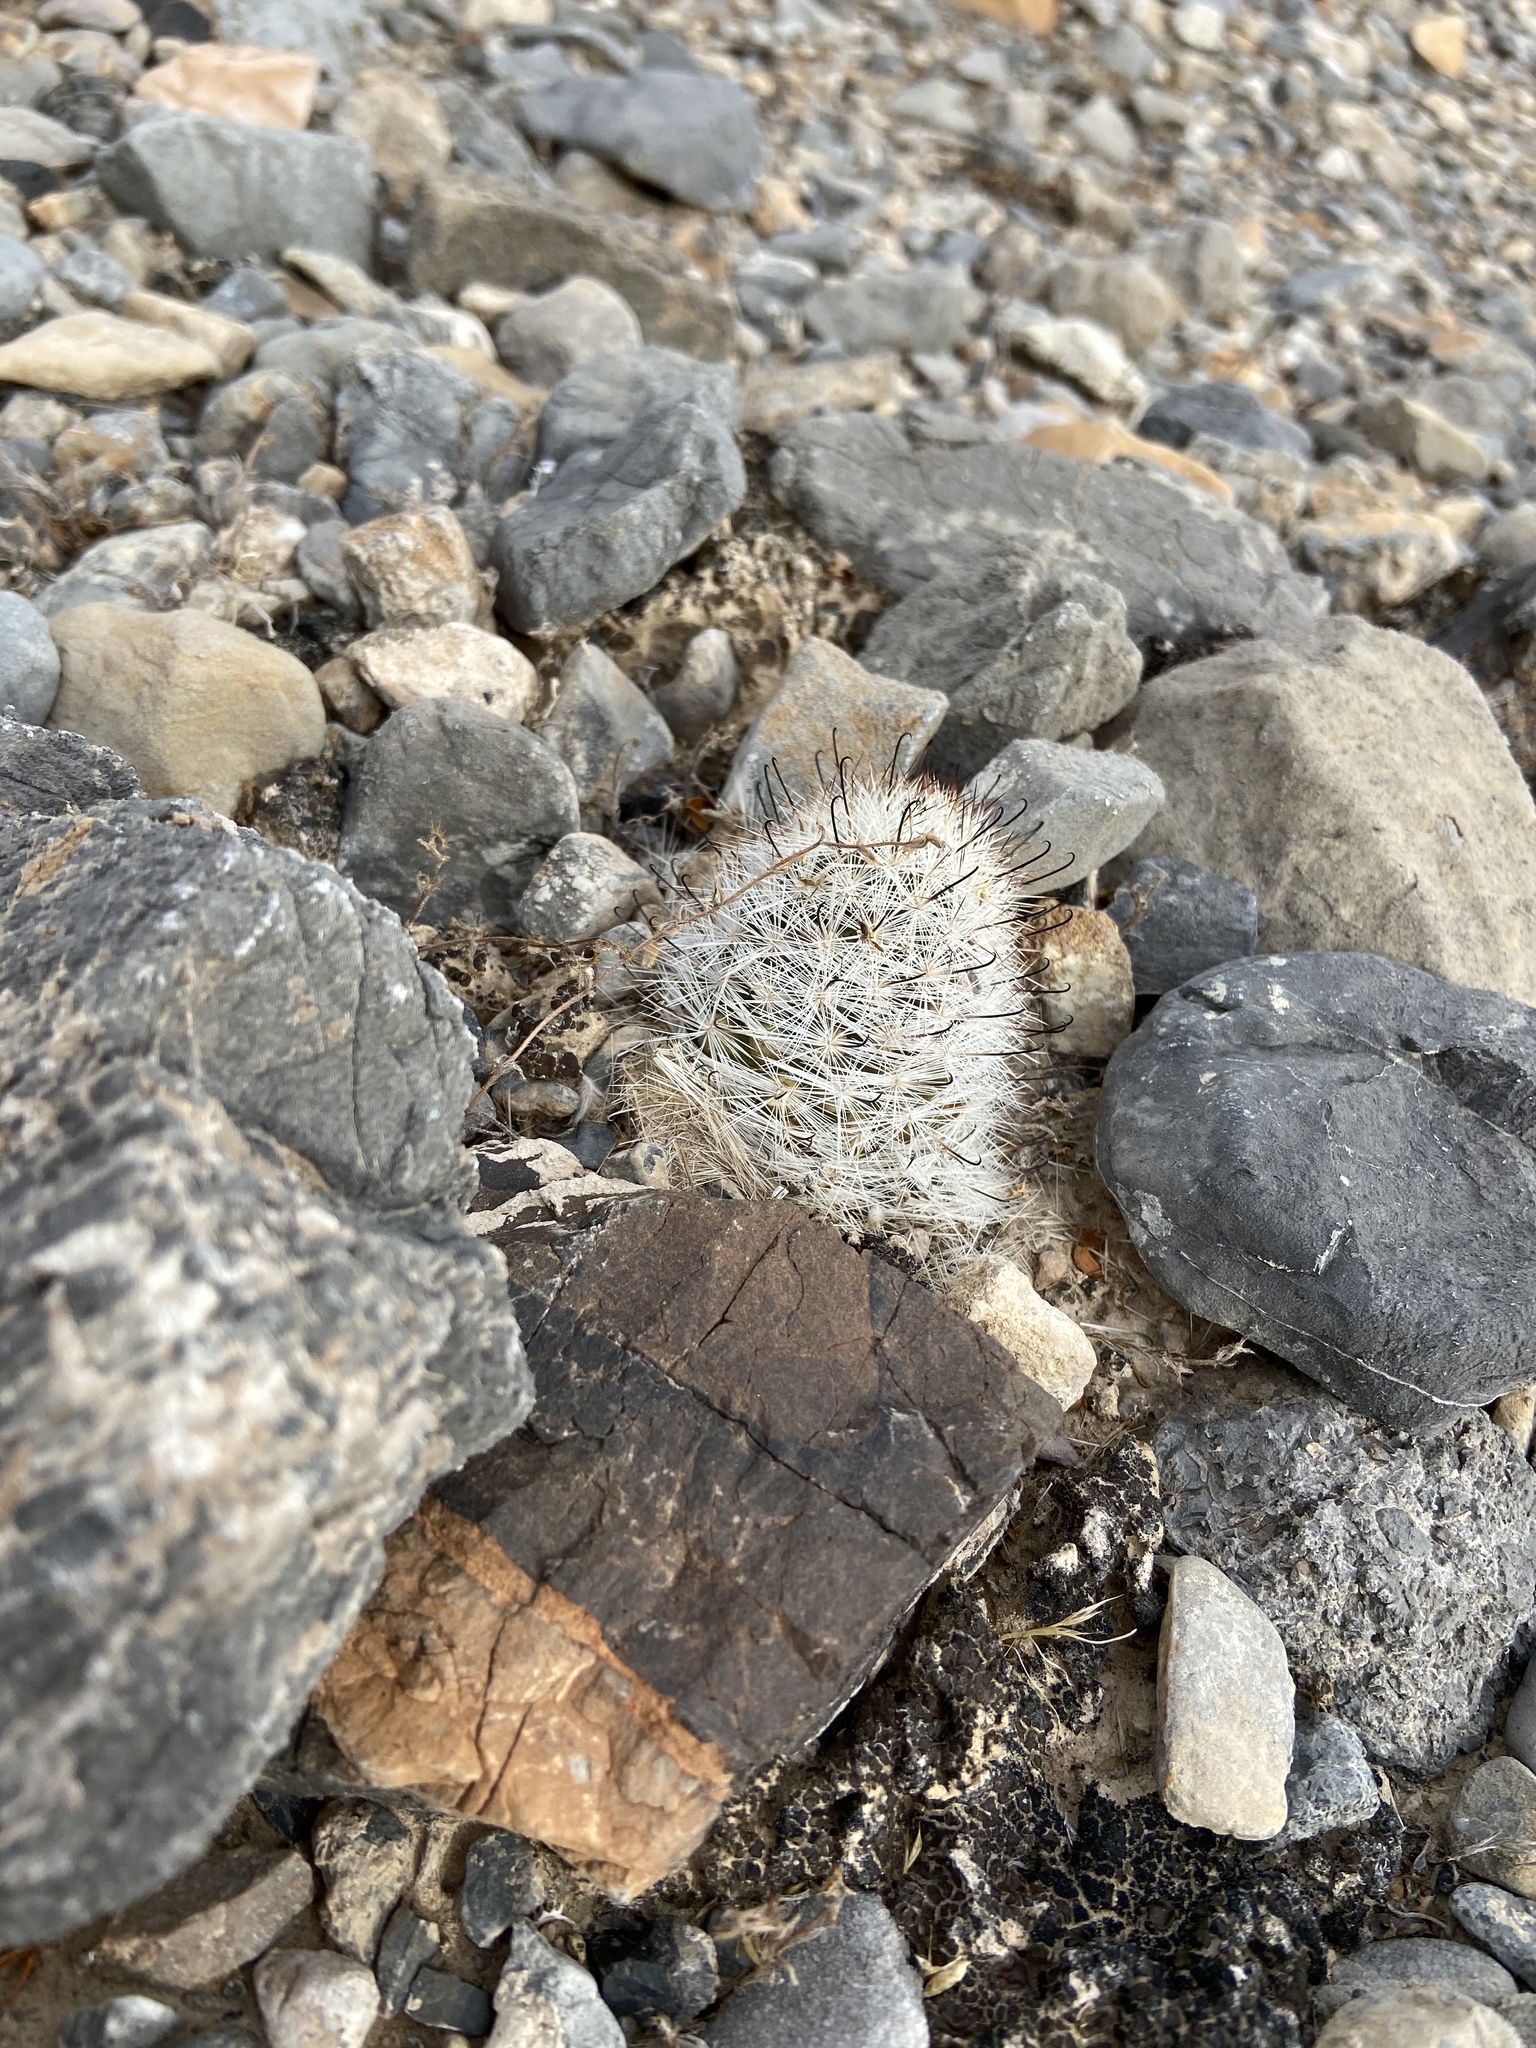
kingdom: Plantae
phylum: Tracheophyta
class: Magnoliopsida
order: Caryophyllales
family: Cactaceae
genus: Cochemiea
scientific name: Cochemiea tetrancistra
